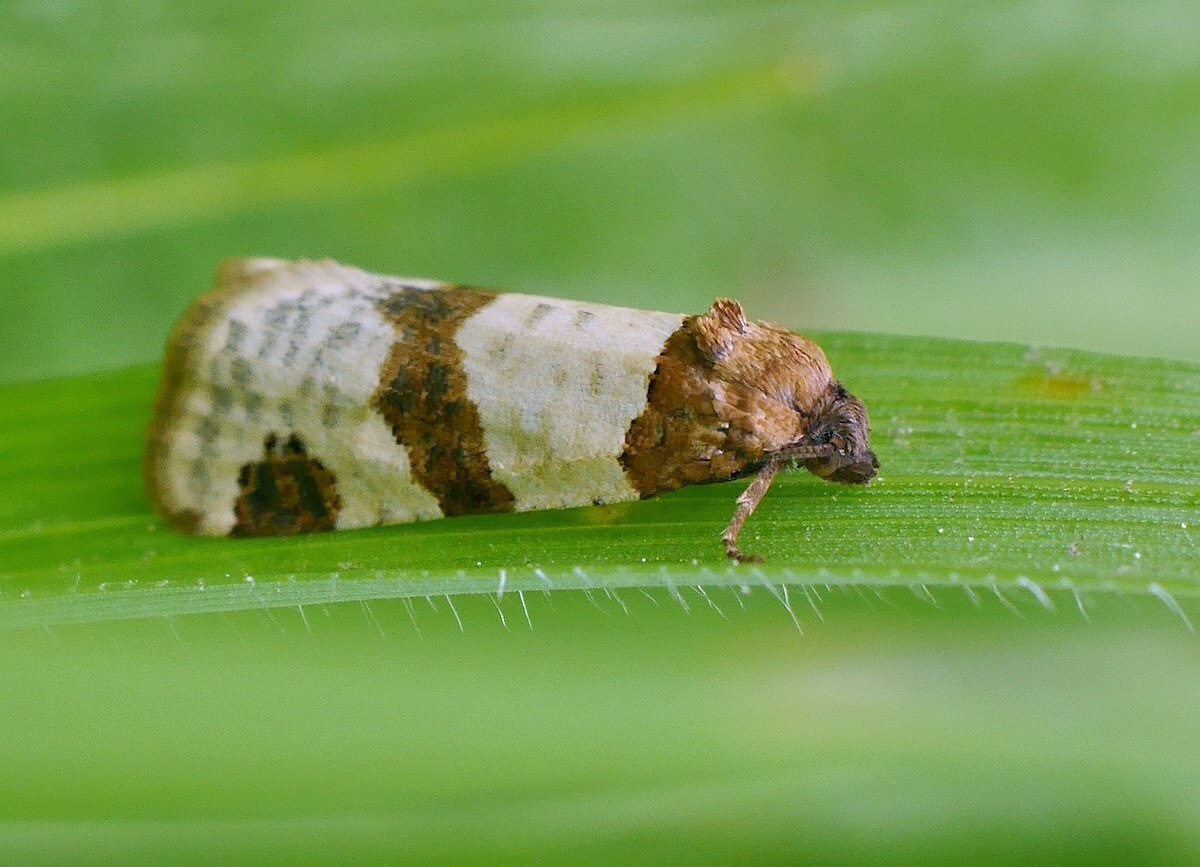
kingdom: Animalia
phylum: Arthropoda
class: Insecta
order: Lepidoptera
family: Tortricidae
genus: Periclepsis
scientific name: Periclepsis cinctana
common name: Dover twist
